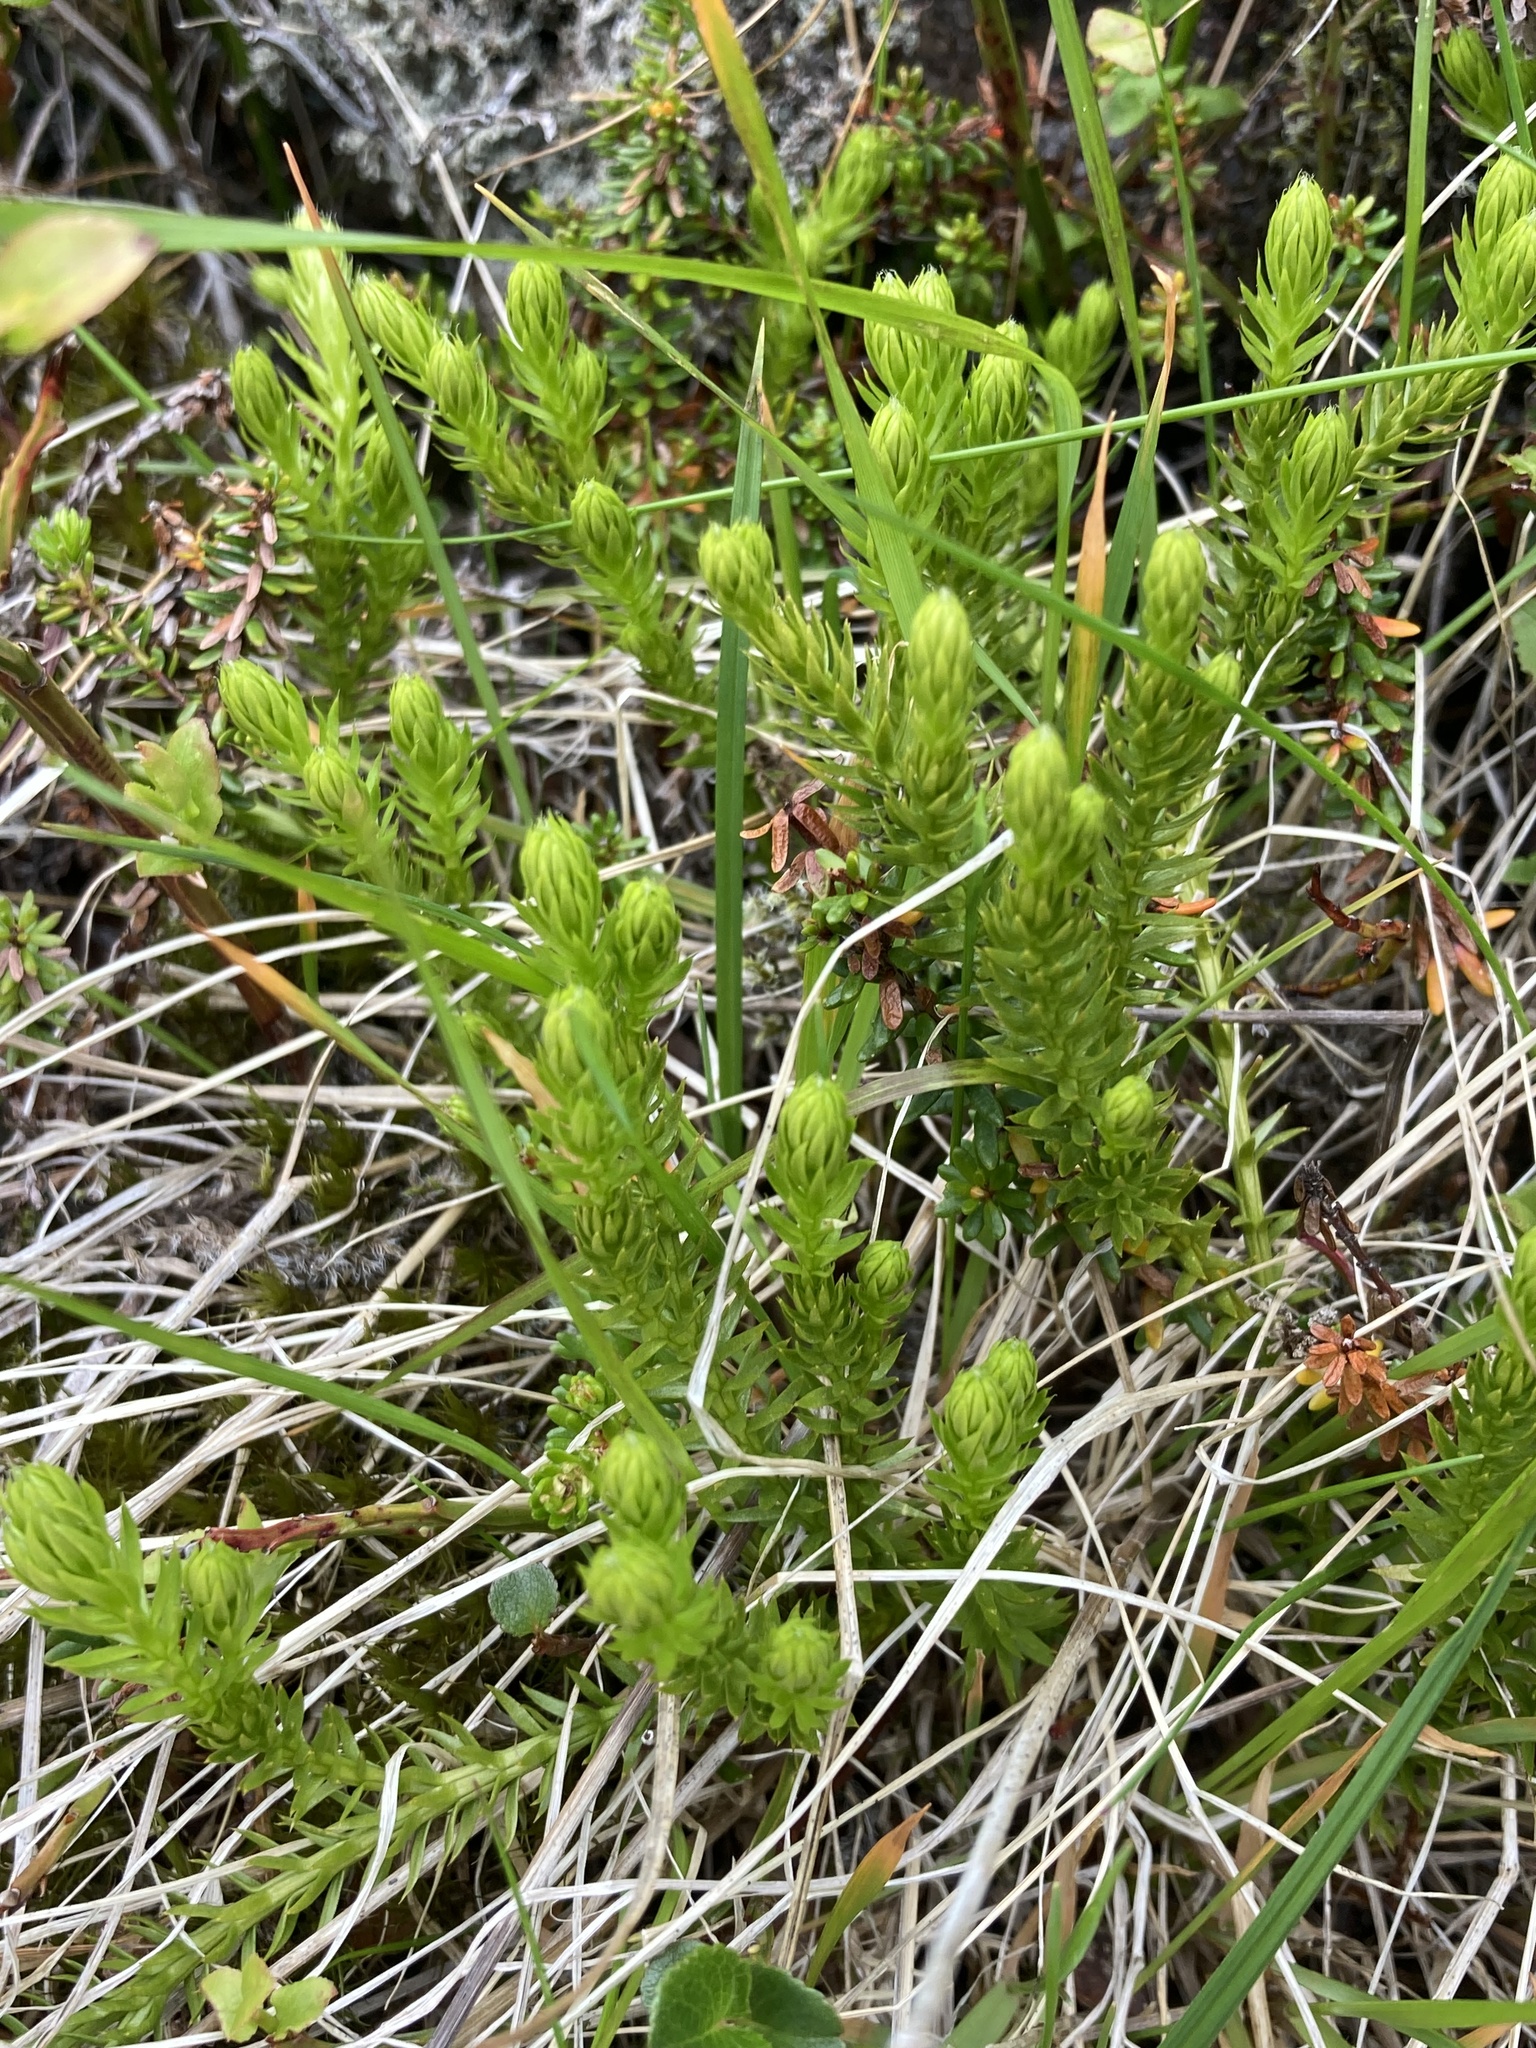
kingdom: Plantae
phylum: Tracheophyta
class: Lycopodiopsida
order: Lycopodiales
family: Lycopodiaceae
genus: Spinulum
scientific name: Spinulum annotinum
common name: Interrupted club-moss
